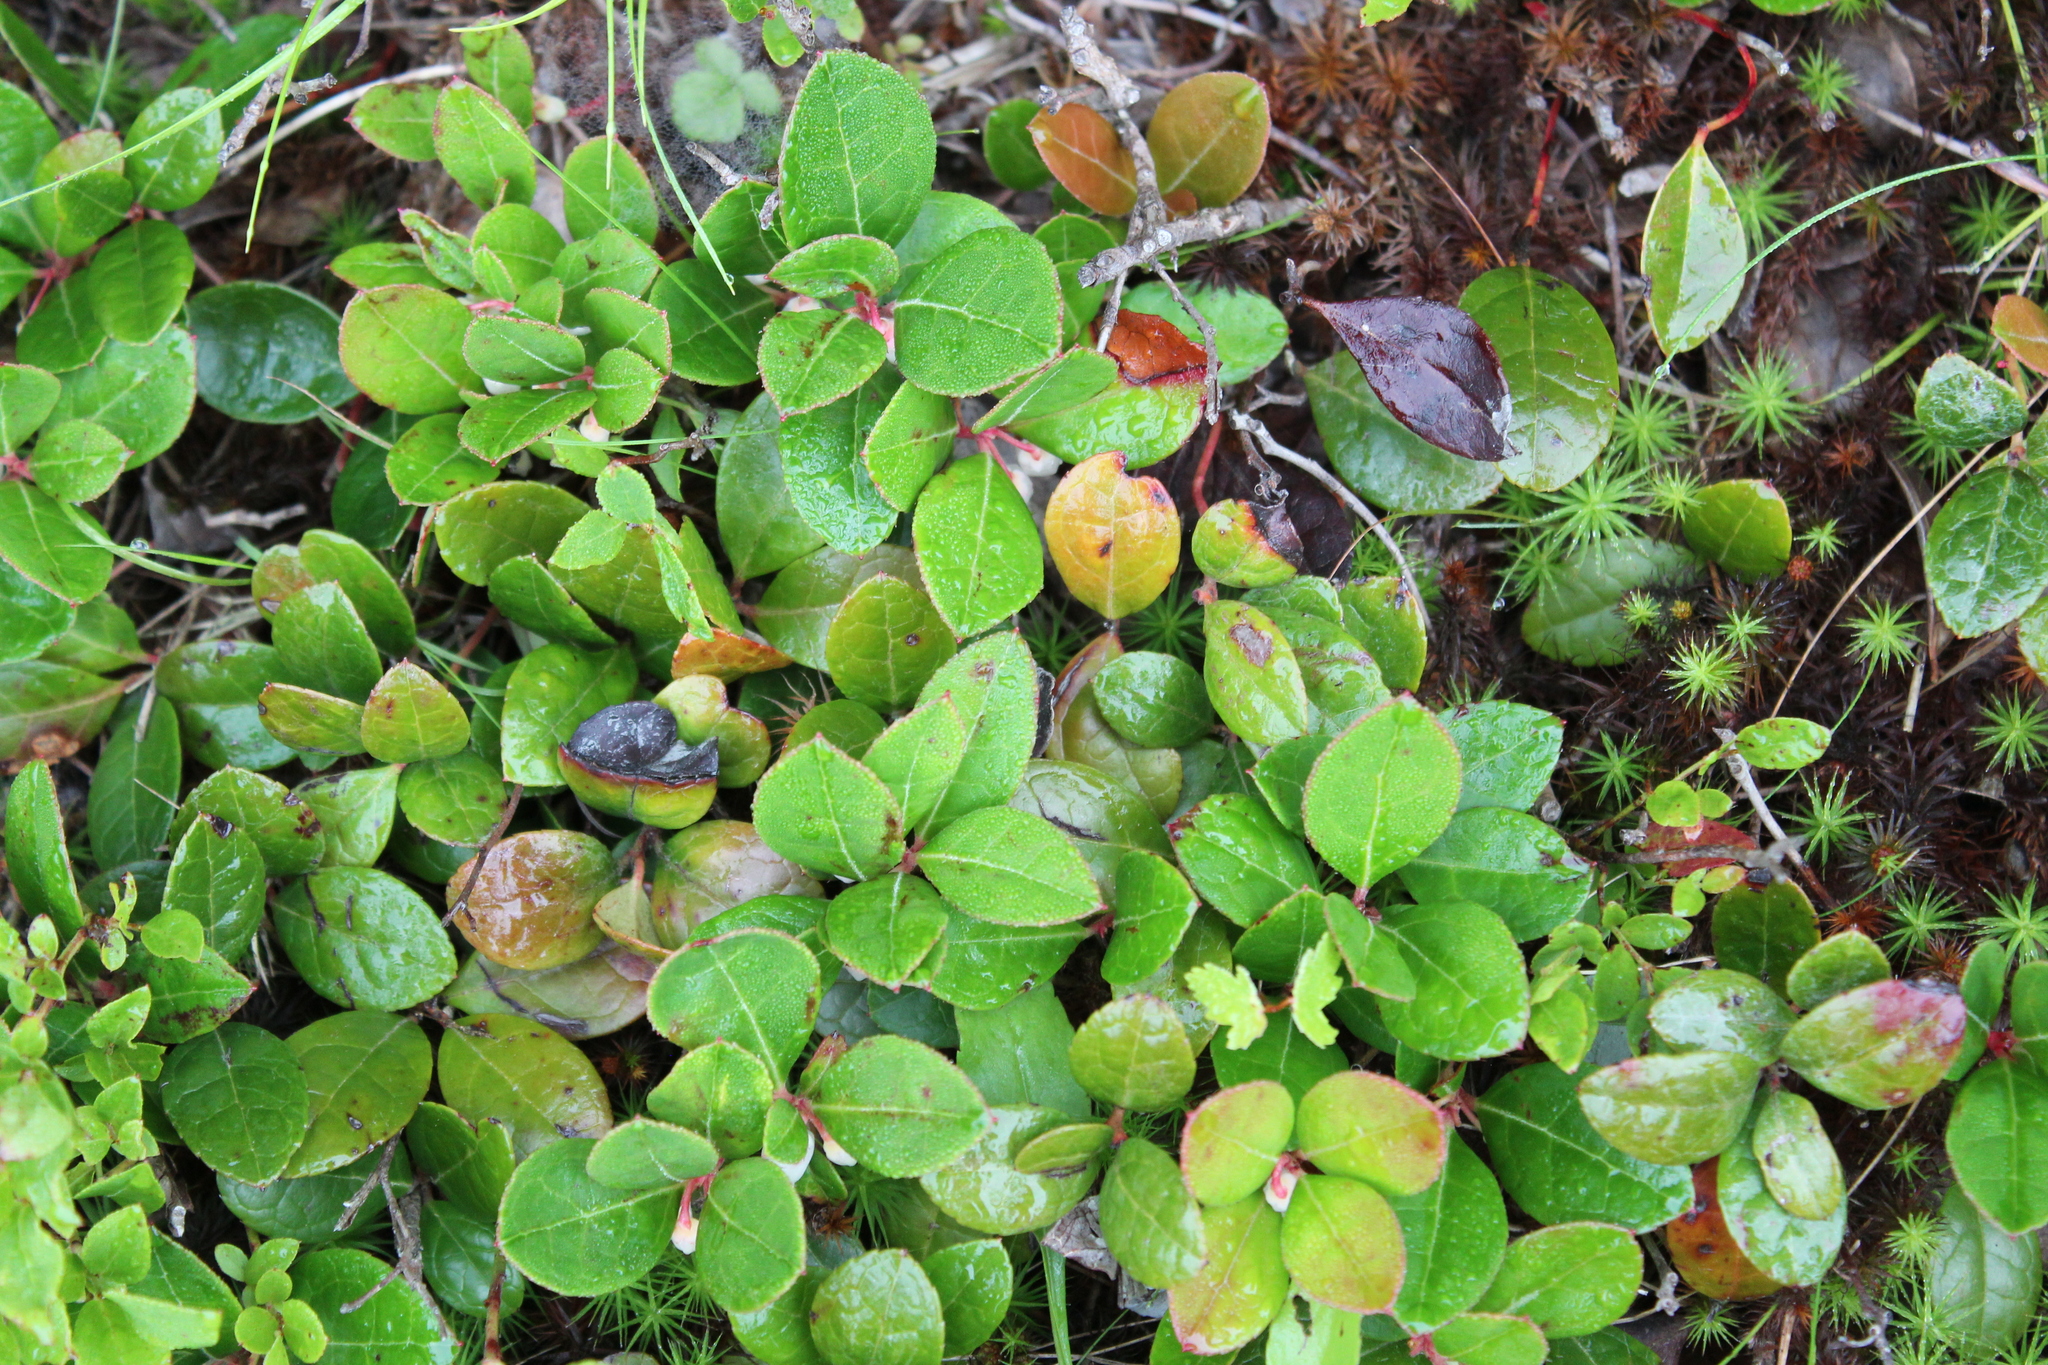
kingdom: Plantae
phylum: Tracheophyta
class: Magnoliopsida
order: Ericales
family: Ericaceae
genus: Gaultheria
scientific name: Gaultheria procumbens
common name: Checkerberry
